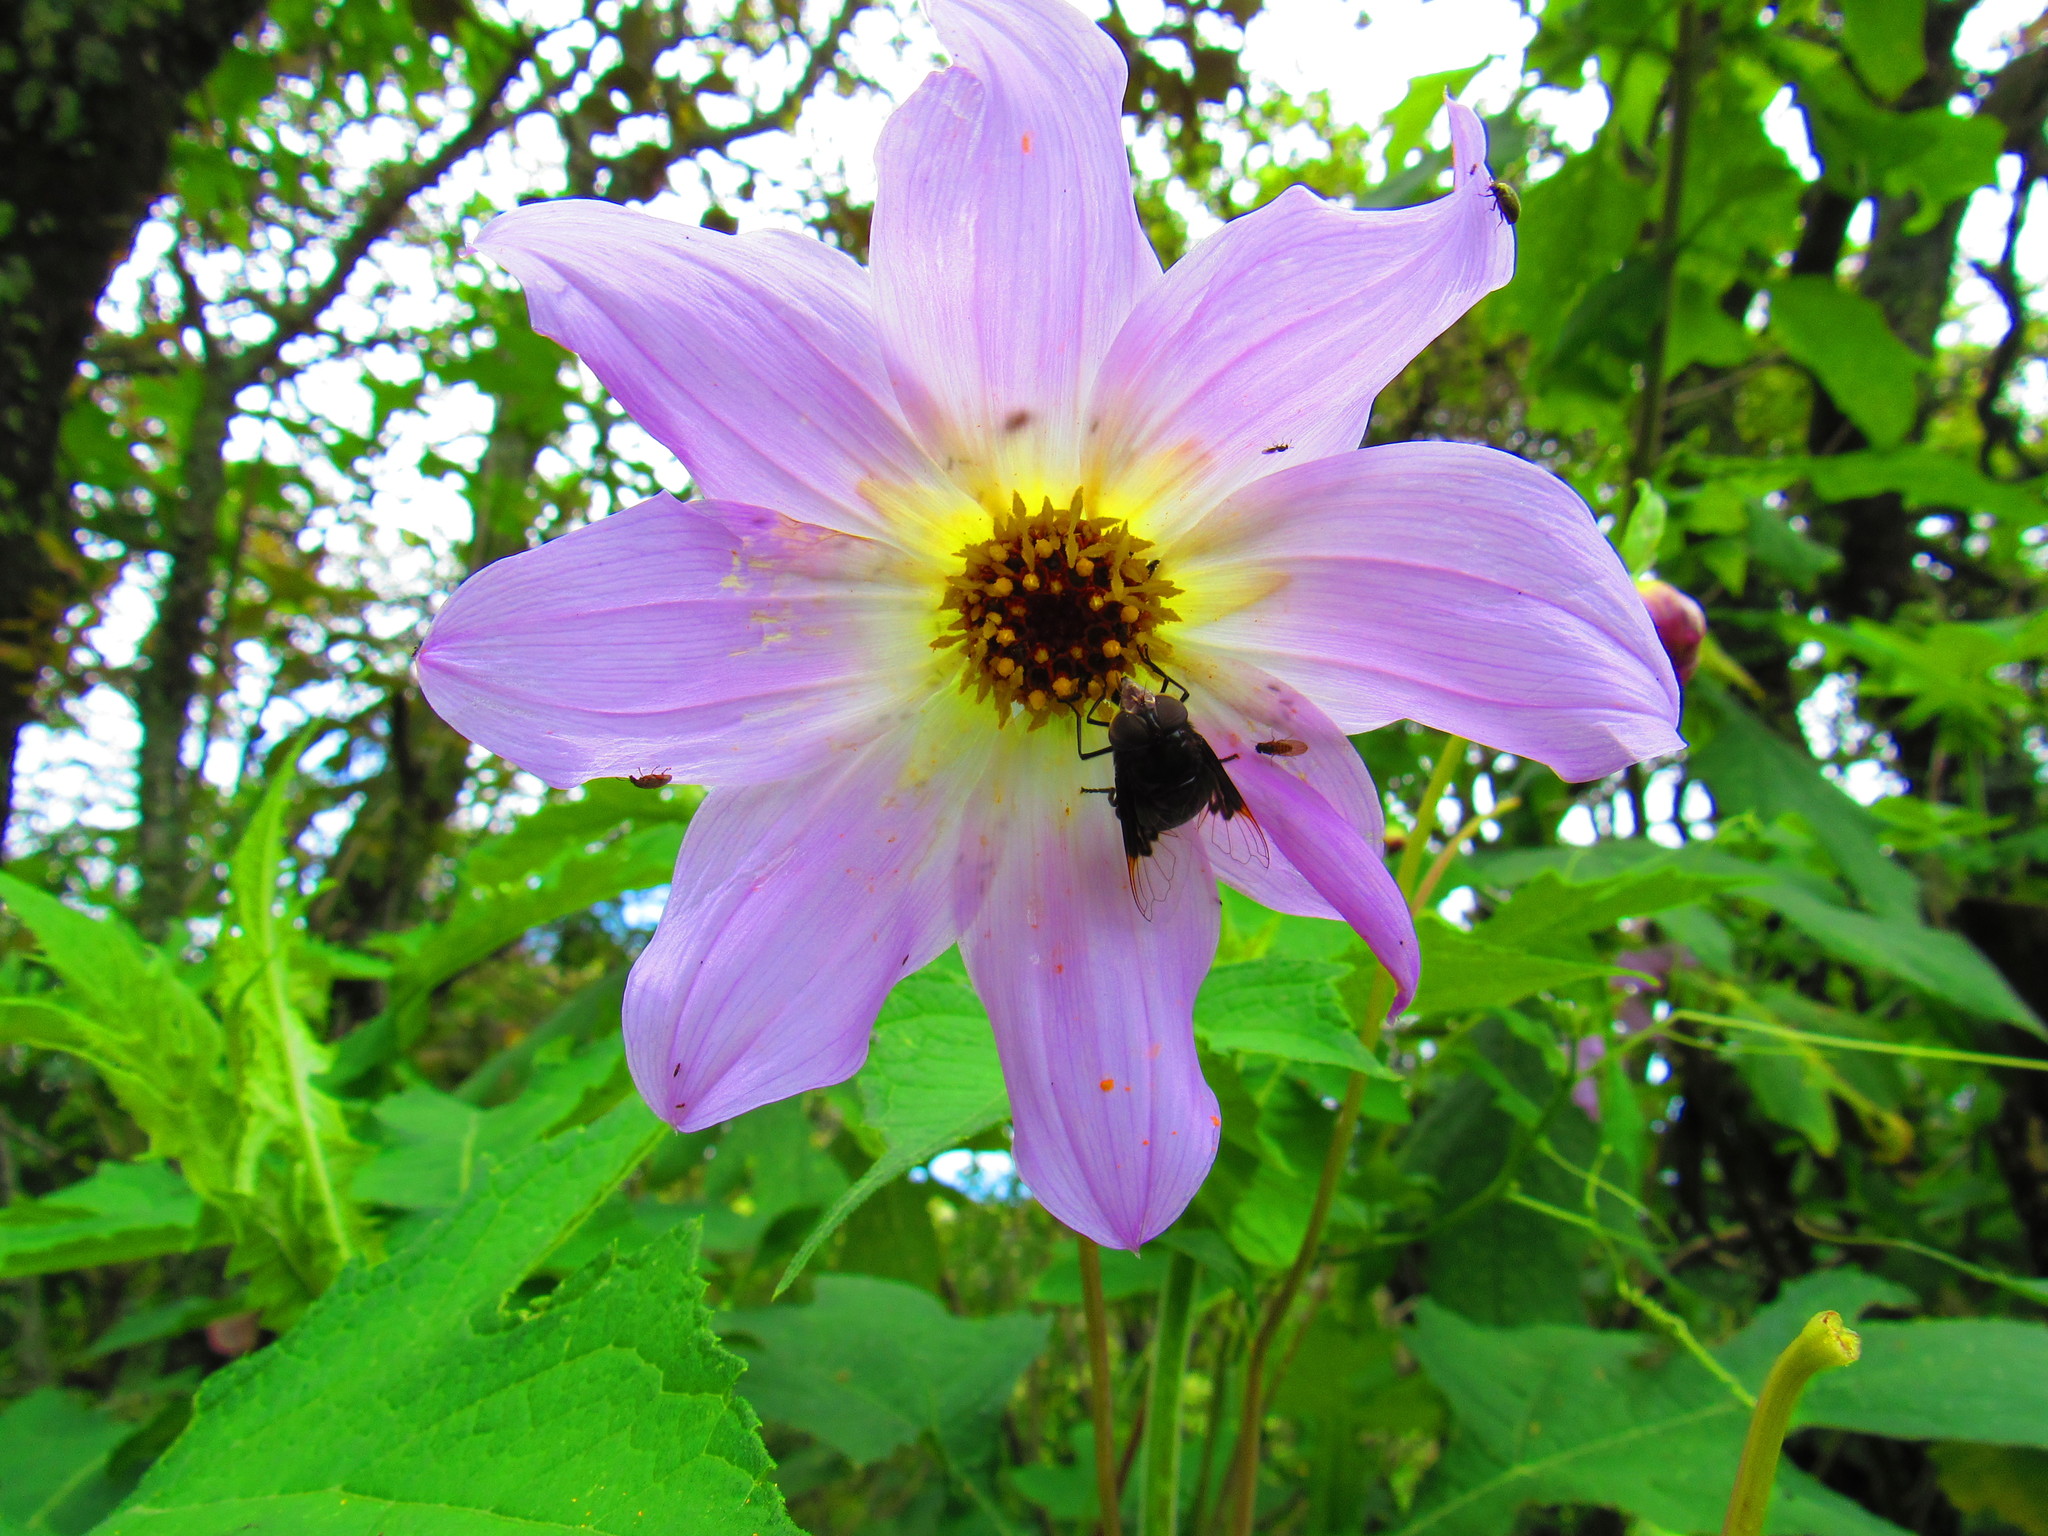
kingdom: Plantae
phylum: Tracheophyta
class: Magnoliopsida
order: Asterales
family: Asteraceae
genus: Dahlia
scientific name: Dahlia imperialis
